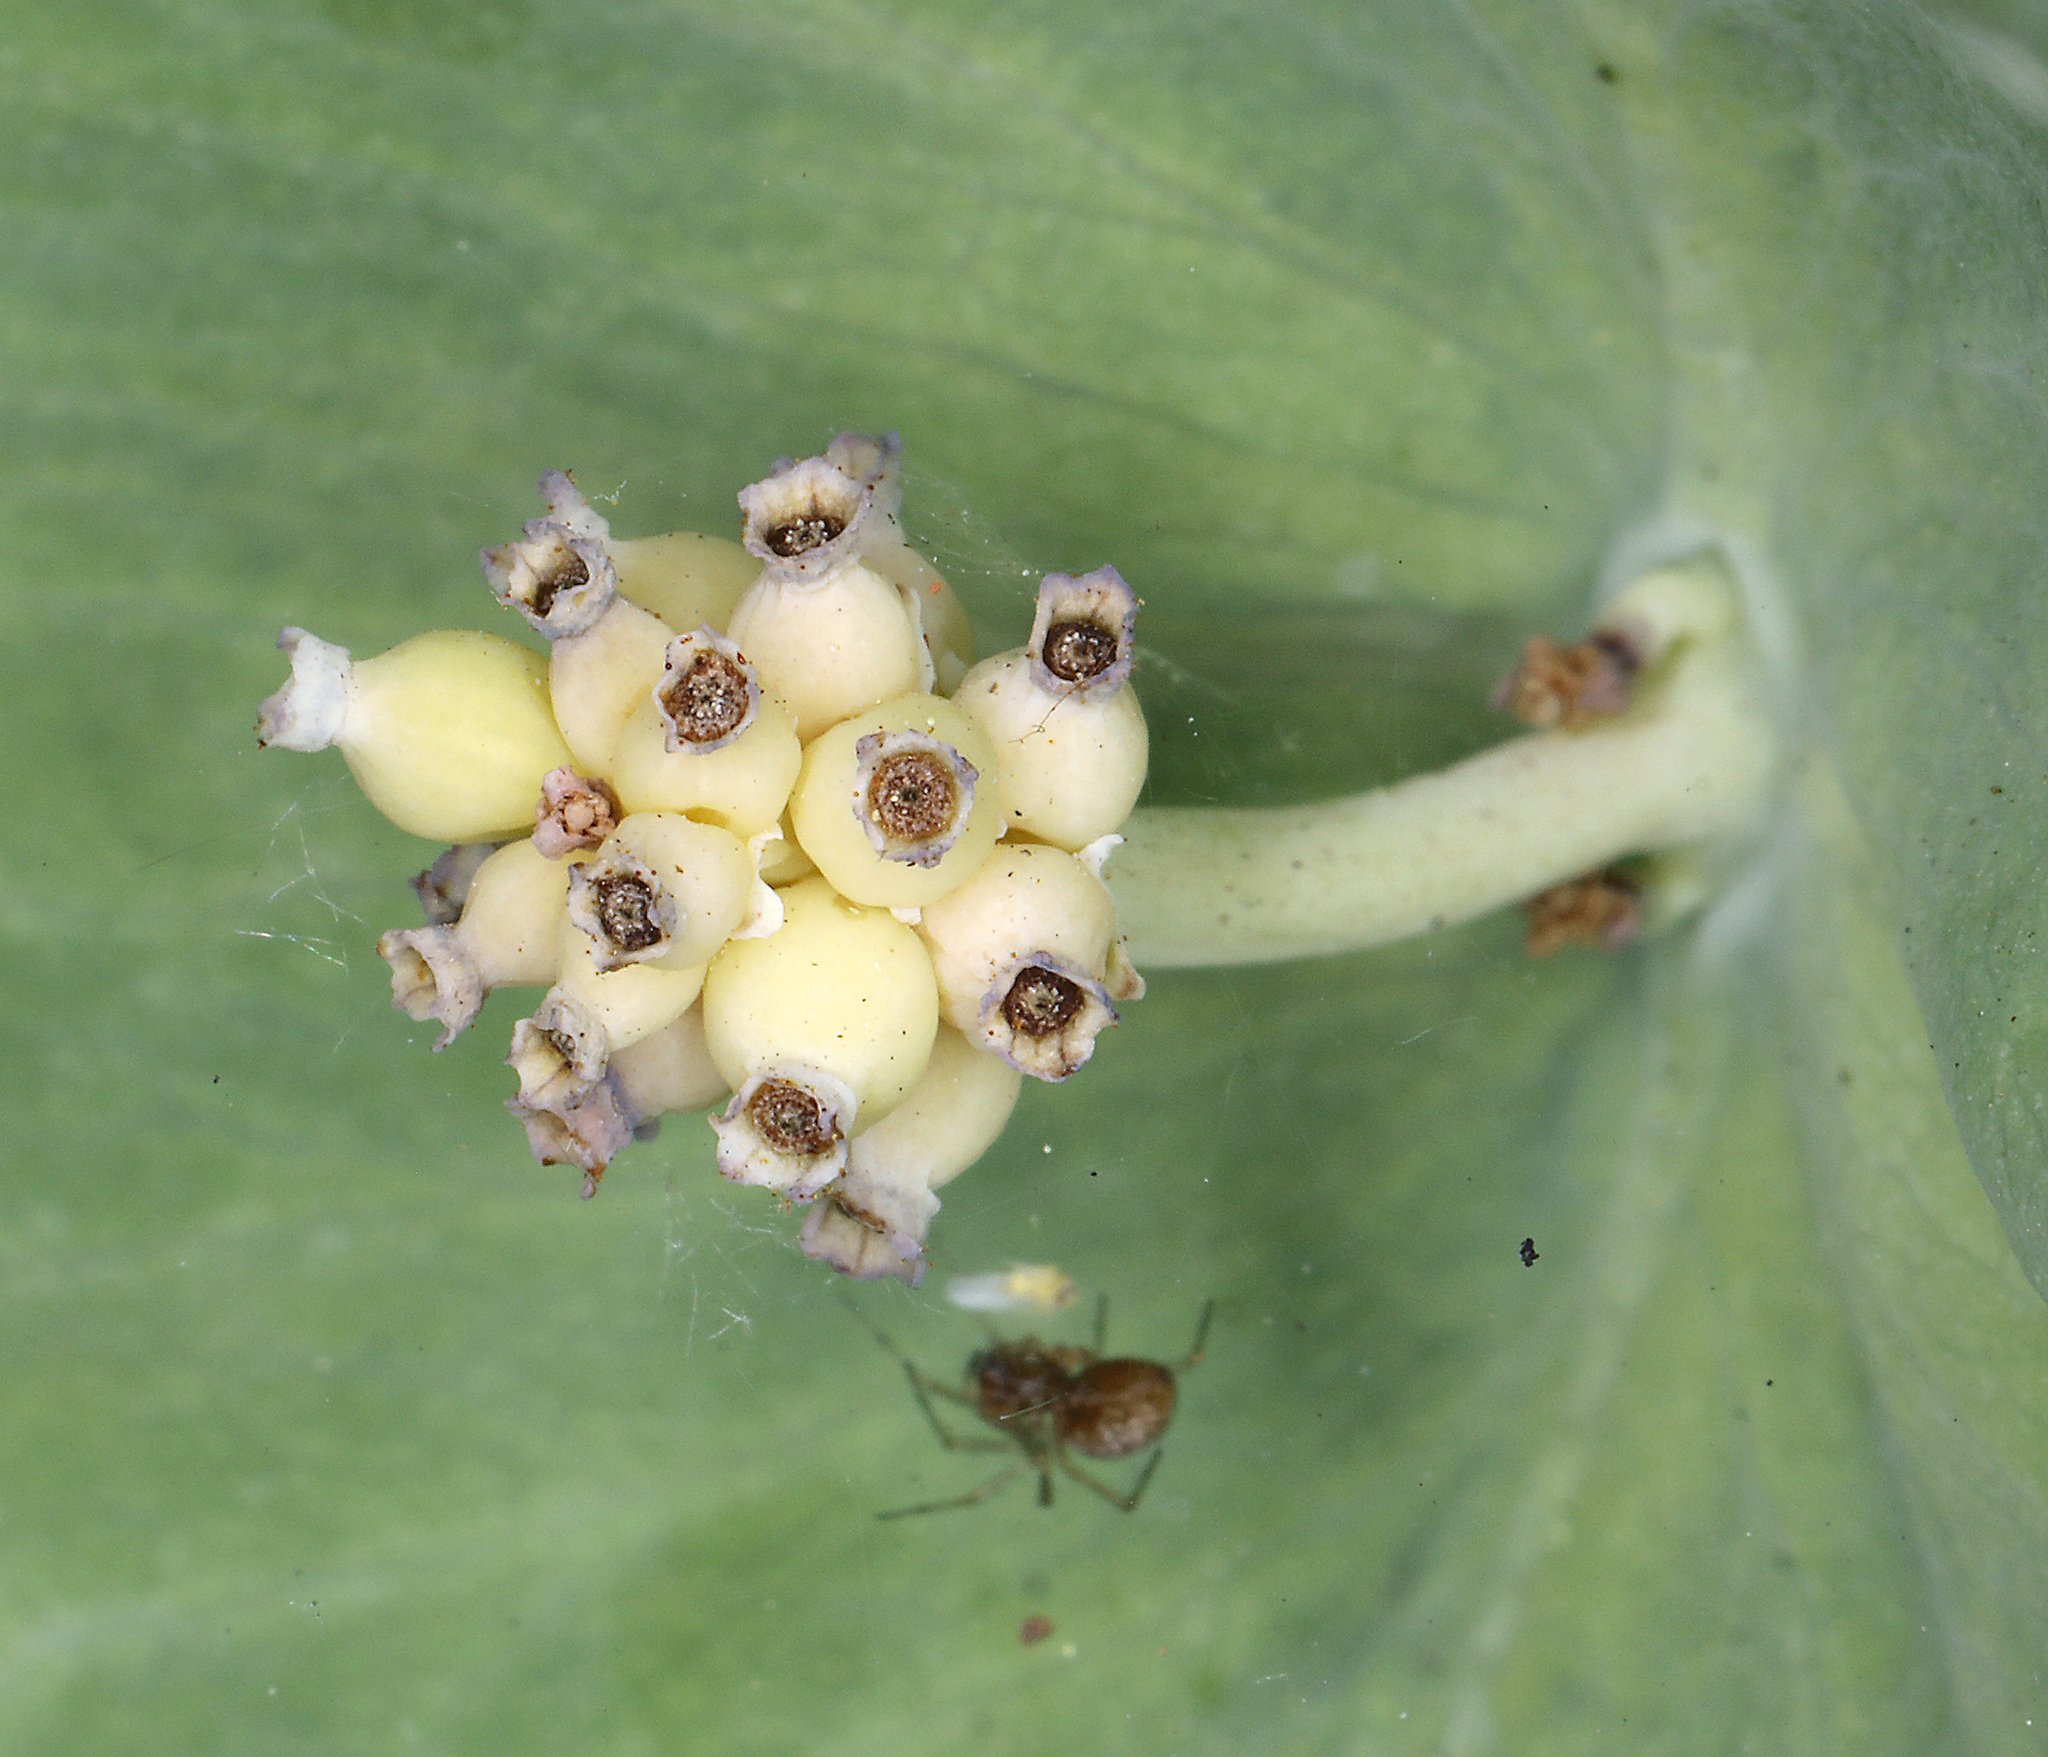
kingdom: Plantae
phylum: Tracheophyta
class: Magnoliopsida
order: Dipsacales
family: Caprifoliaceae
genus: Lonicera
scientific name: Lonicera ciliosa
